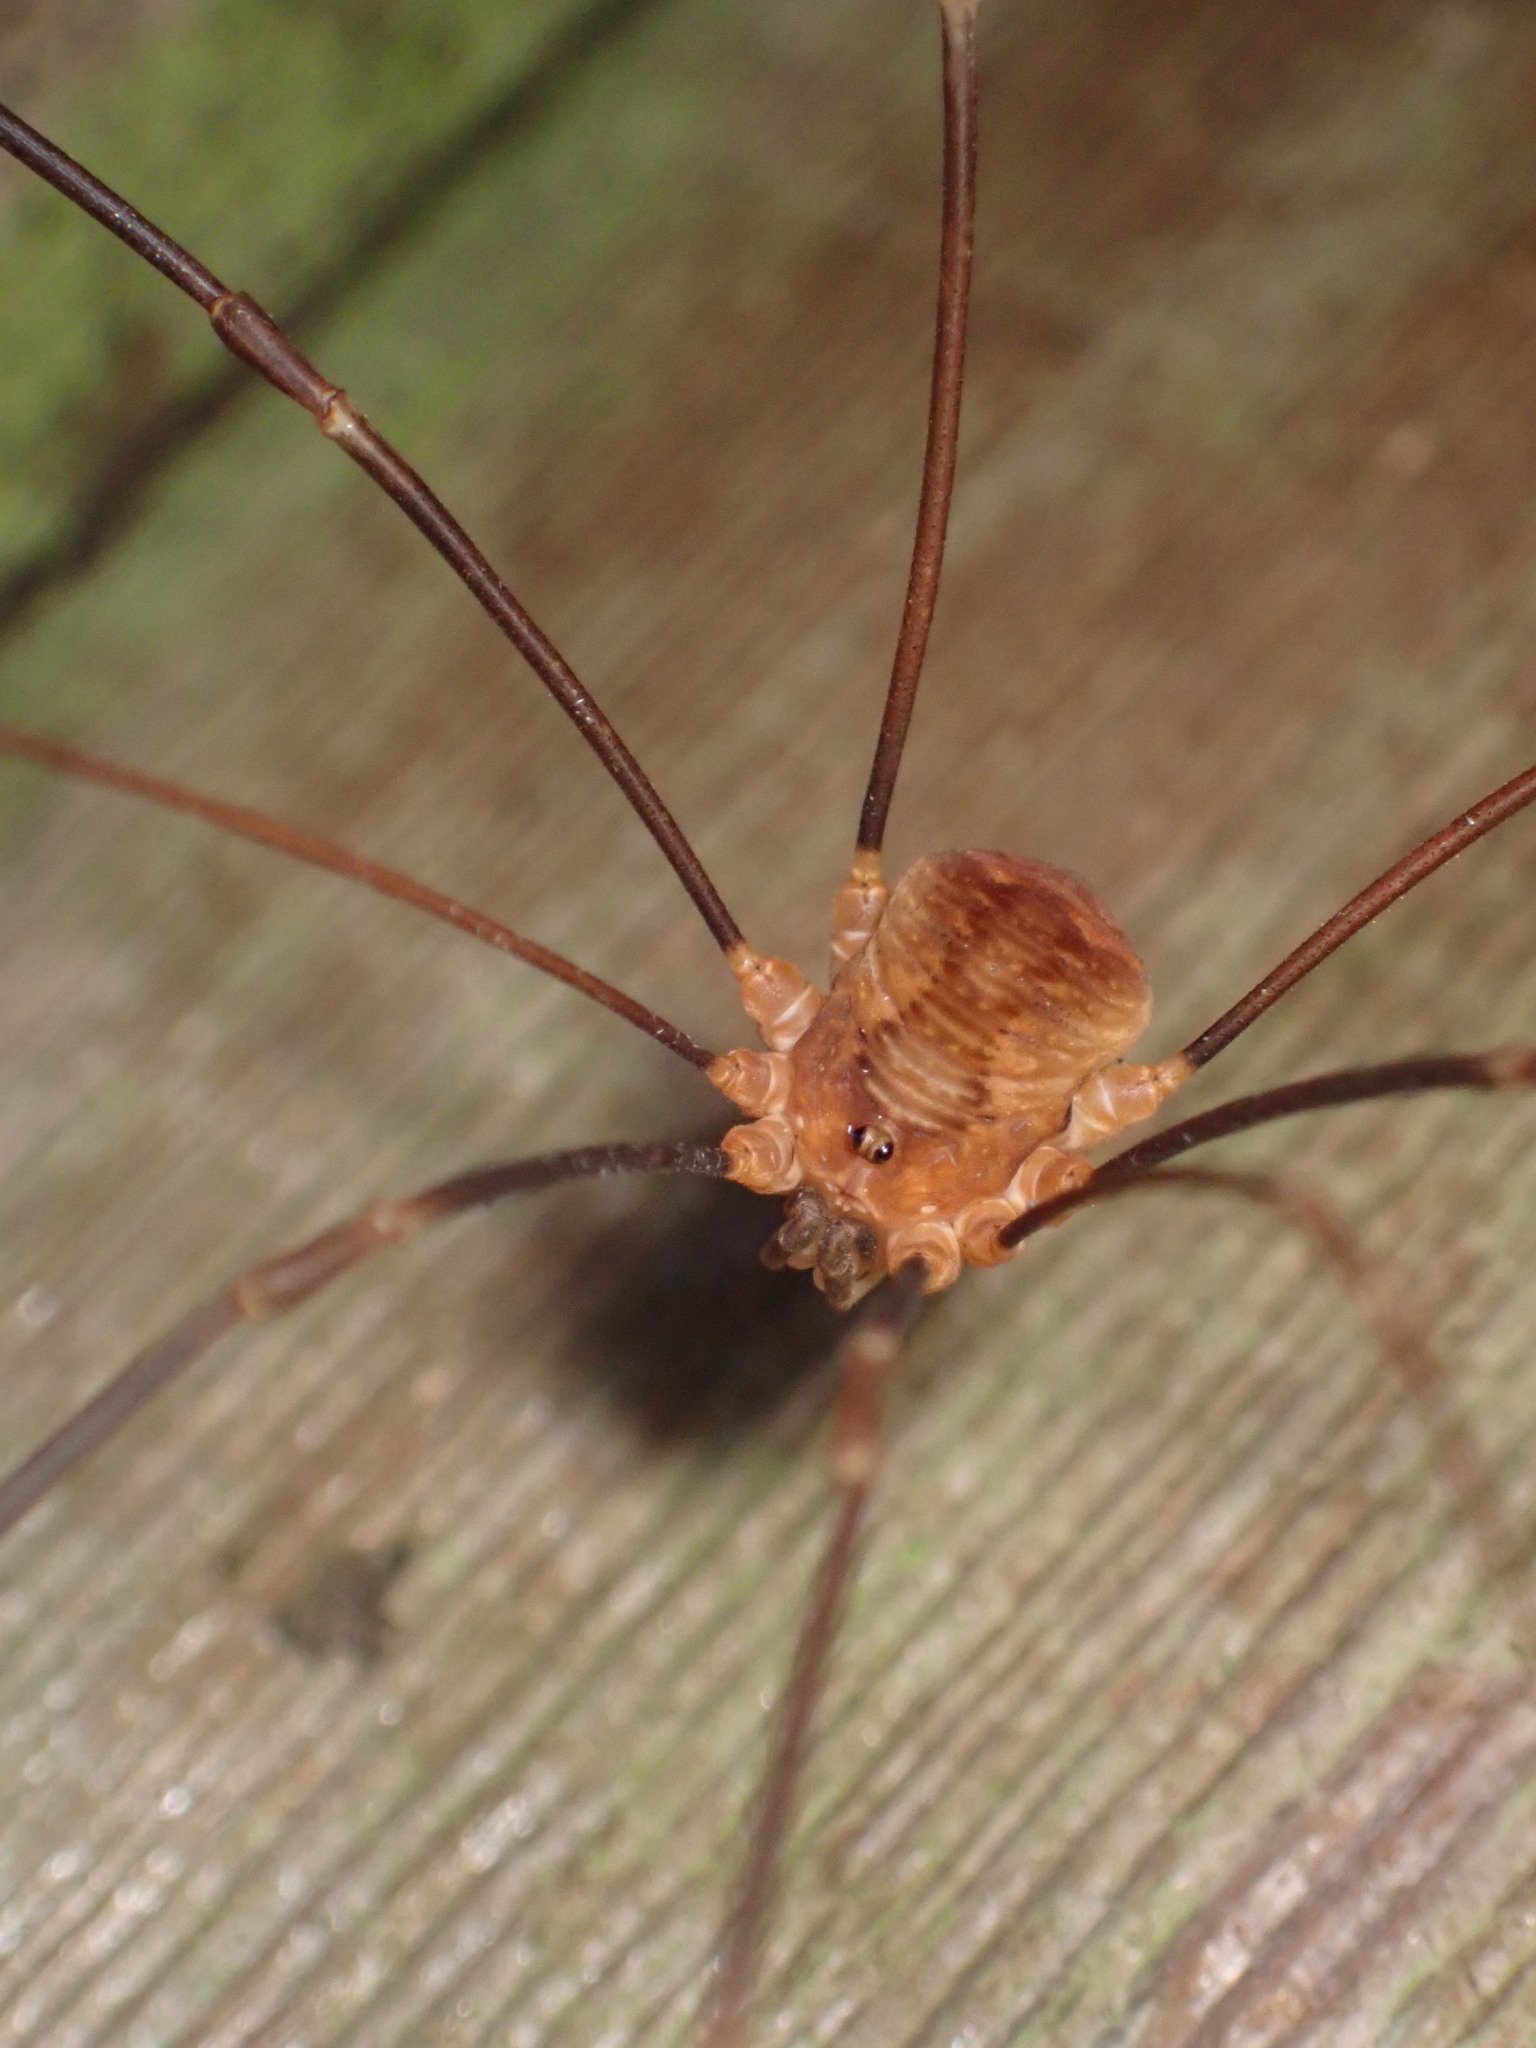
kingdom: Animalia
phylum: Arthropoda
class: Arachnida
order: Opiliones
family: Sclerosomatidae
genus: Nelima
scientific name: Nelima paessleri
